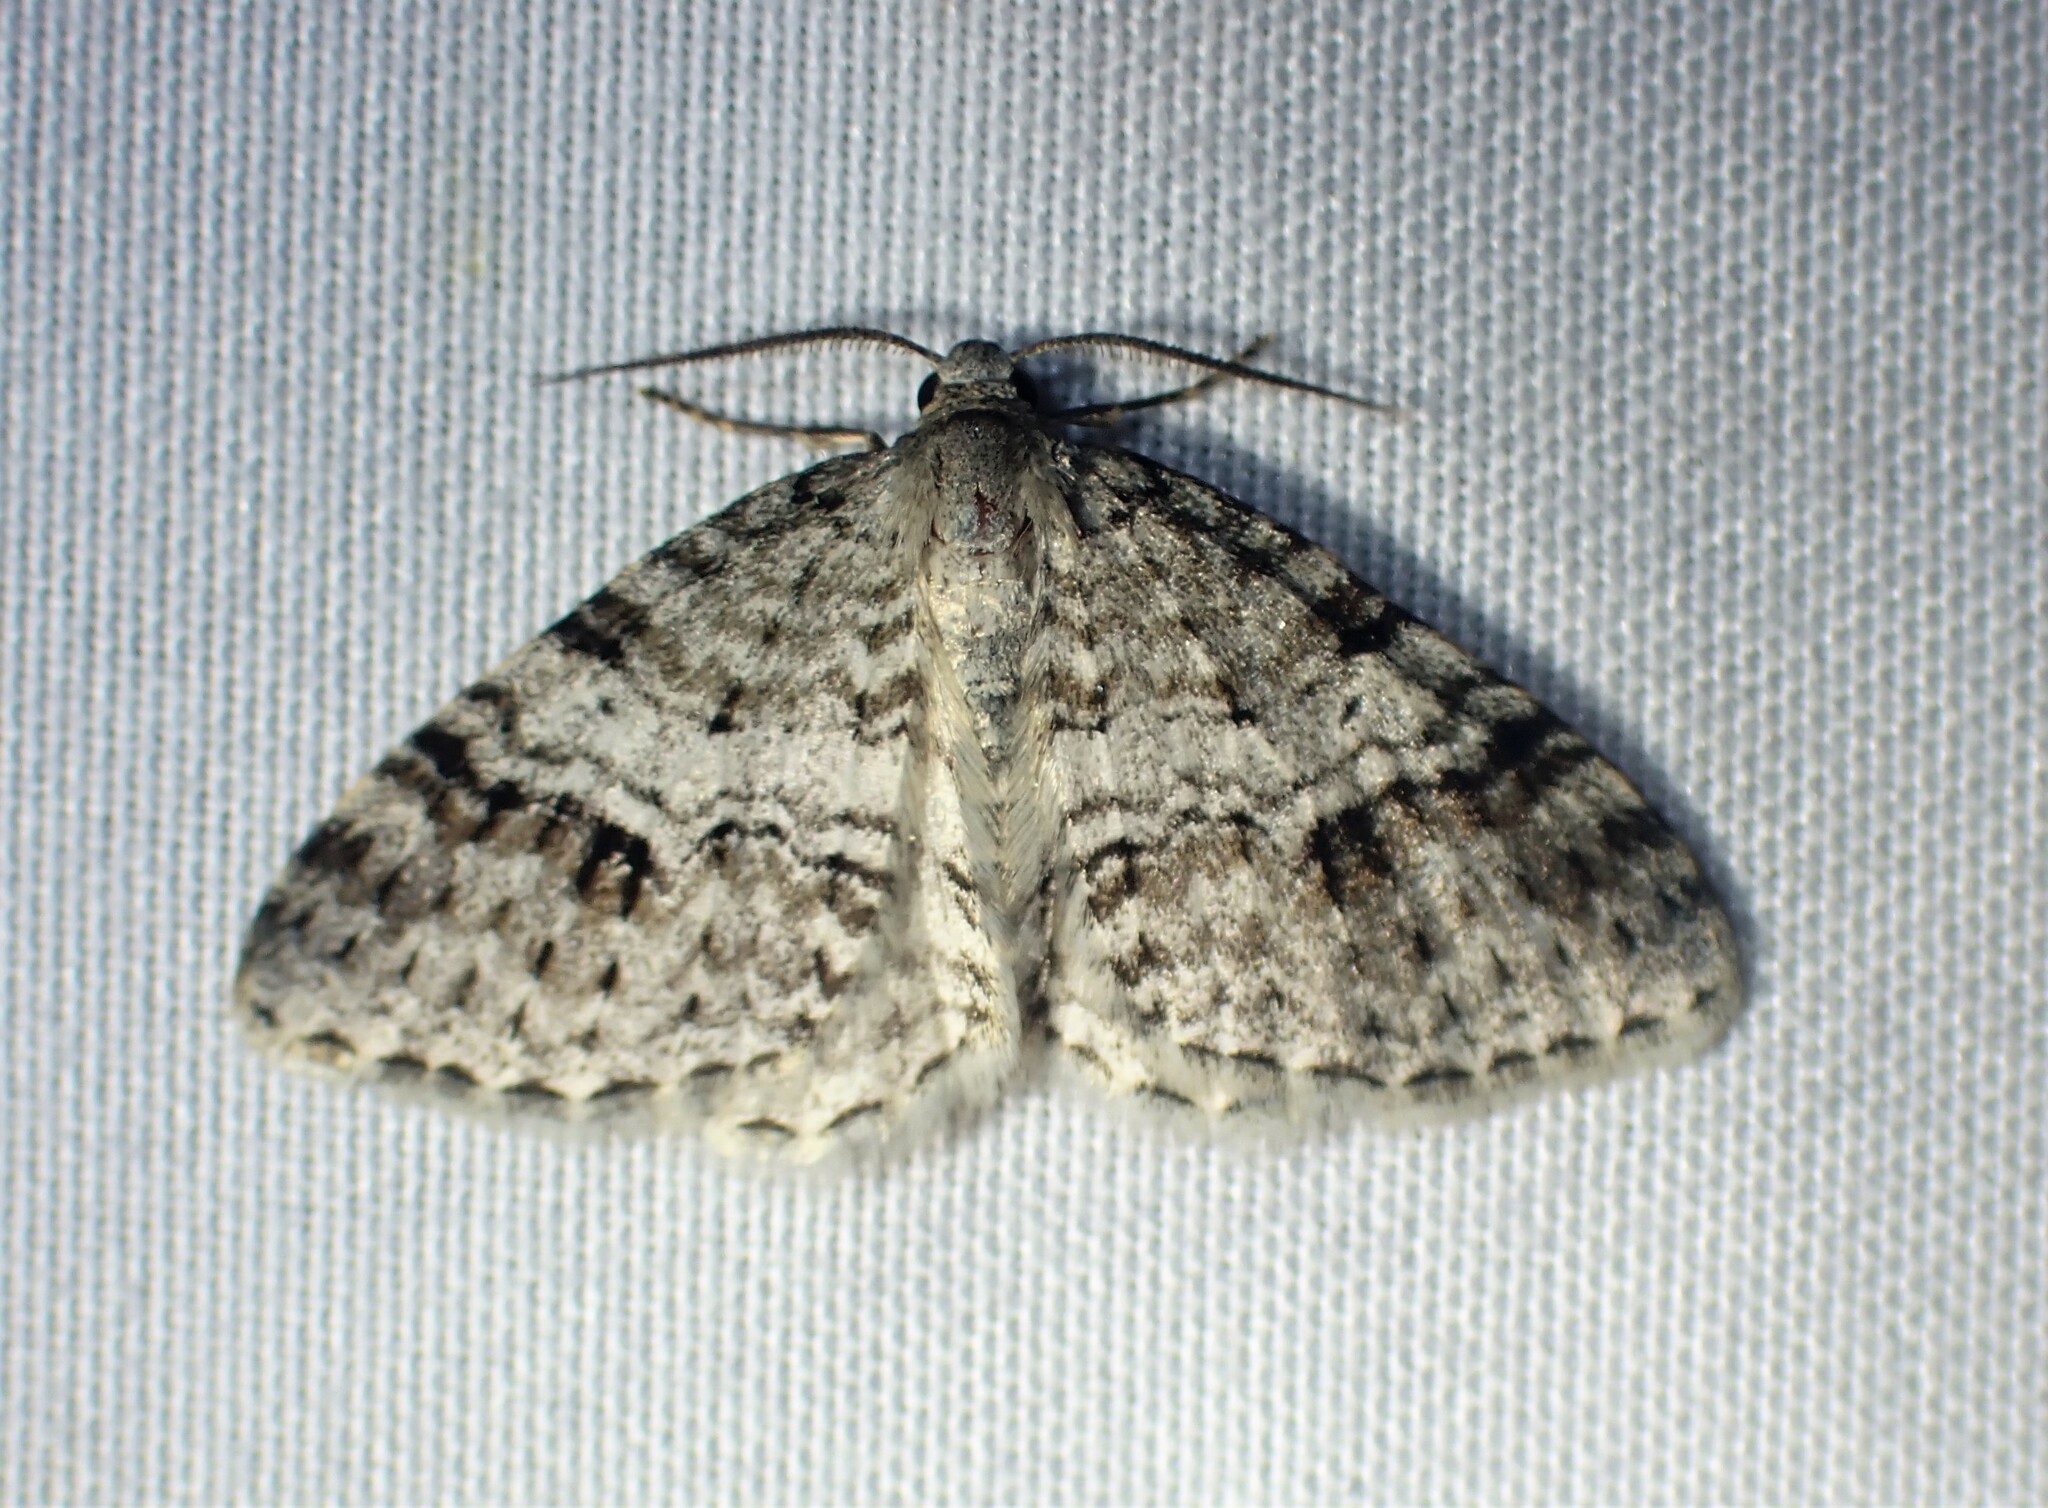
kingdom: Animalia
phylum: Arthropoda
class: Insecta
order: Lepidoptera
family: Geometridae
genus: Venusia
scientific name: Venusia cambrica
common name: Welsh wave
